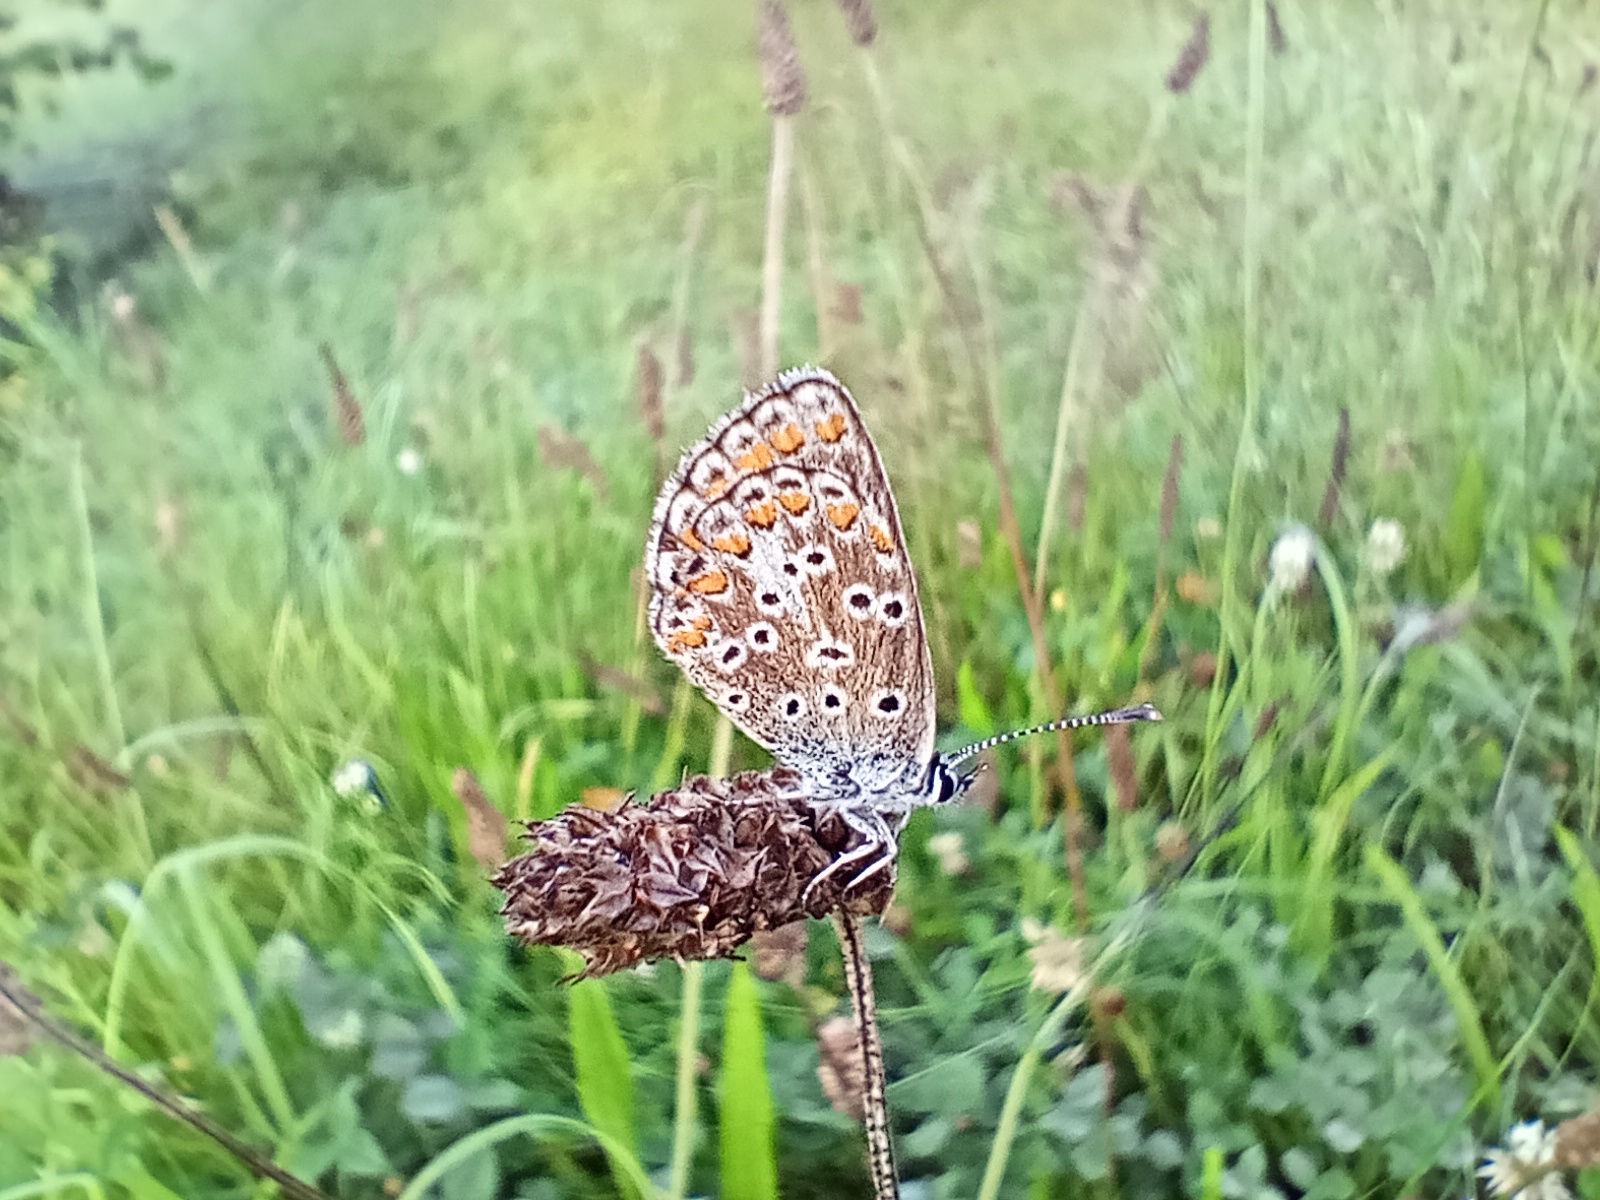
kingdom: Animalia
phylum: Arthropoda
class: Insecta
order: Lepidoptera
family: Lycaenidae
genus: Aricia
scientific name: Aricia agestis
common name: Brown argus
